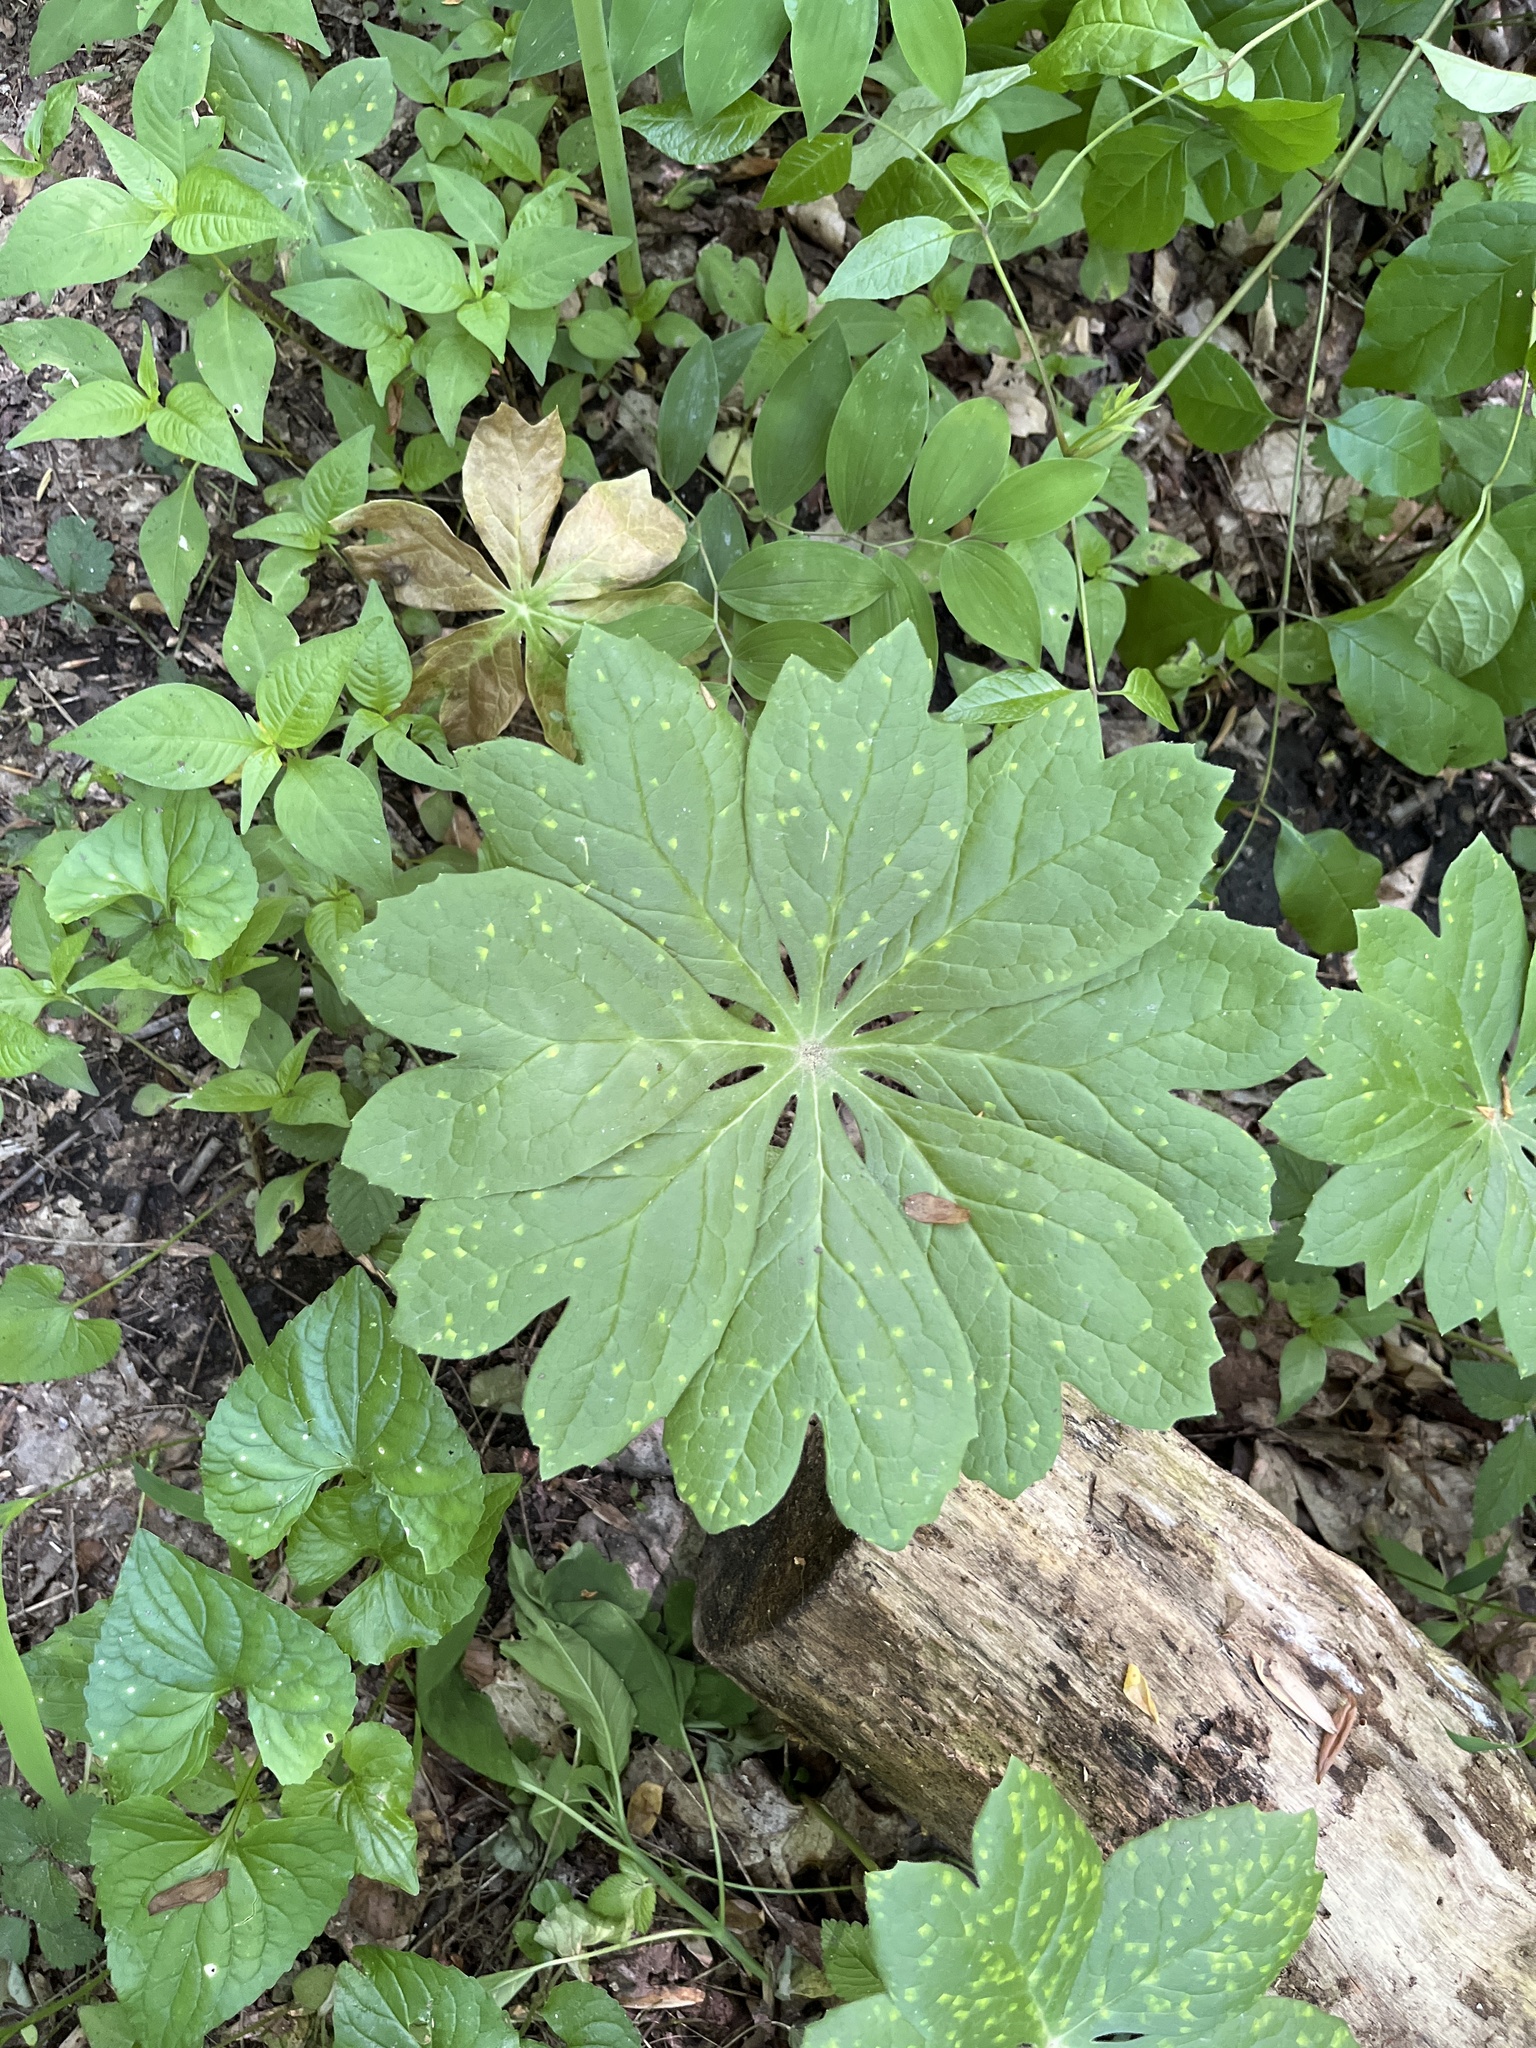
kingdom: Plantae
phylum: Tracheophyta
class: Magnoliopsida
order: Ranunculales
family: Berberidaceae
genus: Podophyllum
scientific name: Podophyllum peltatum
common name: Wild mandrake
